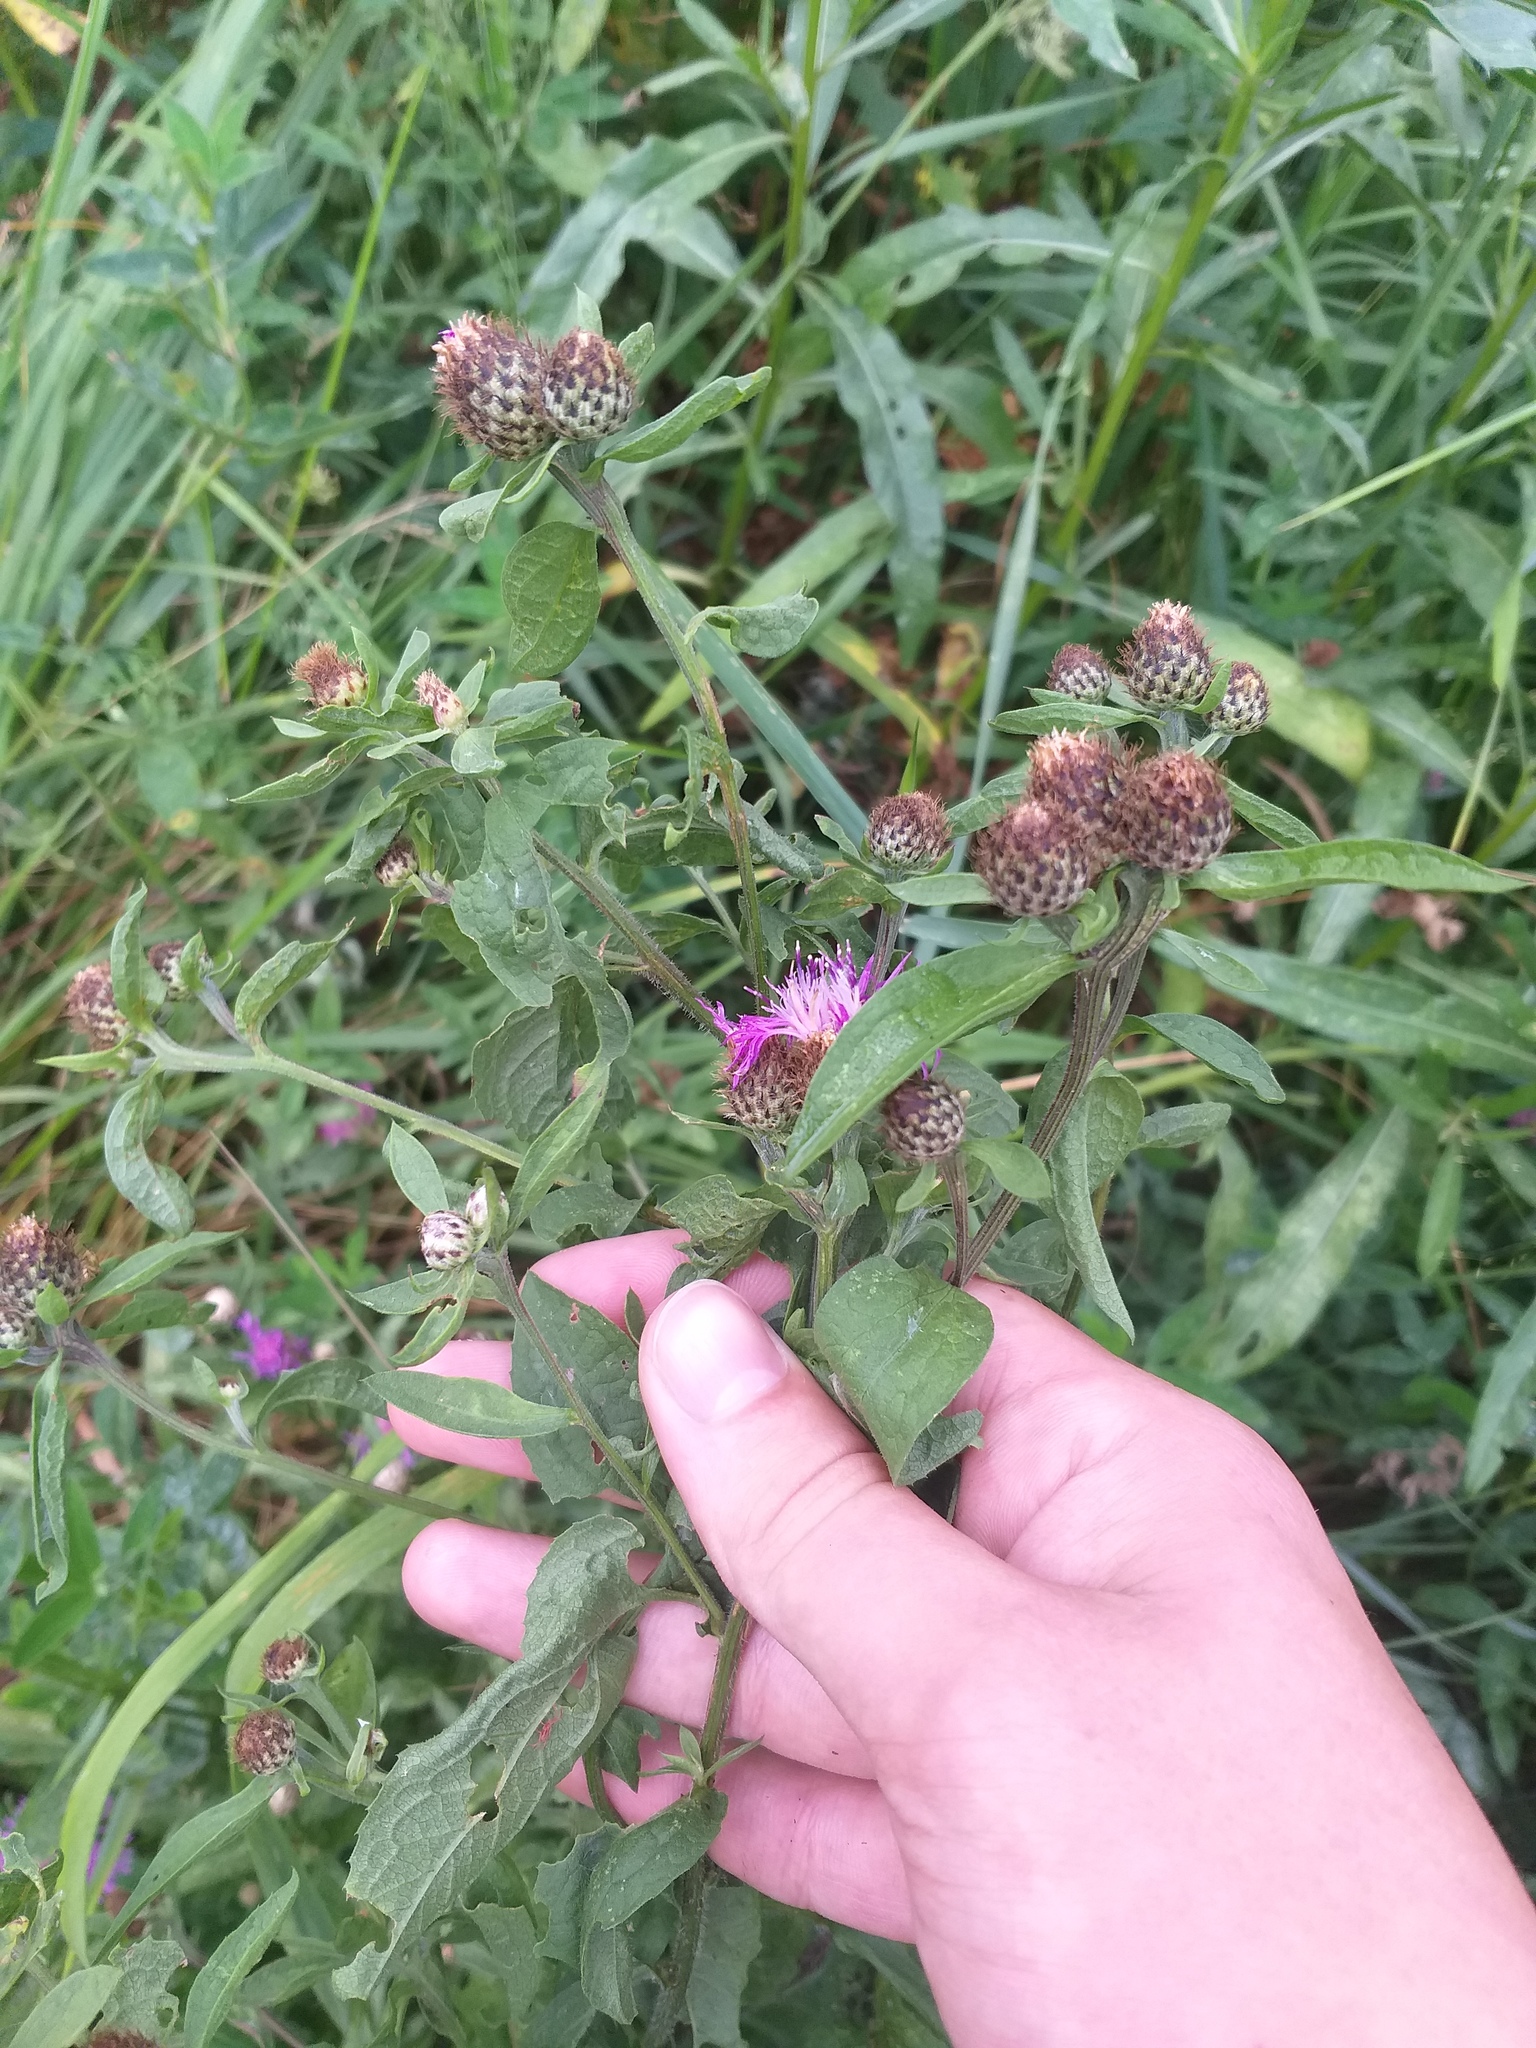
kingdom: Plantae
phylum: Tracheophyta
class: Magnoliopsida
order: Asterales
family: Asteraceae
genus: Centaurea
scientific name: Centaurea phrygia
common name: Wig knapweed
